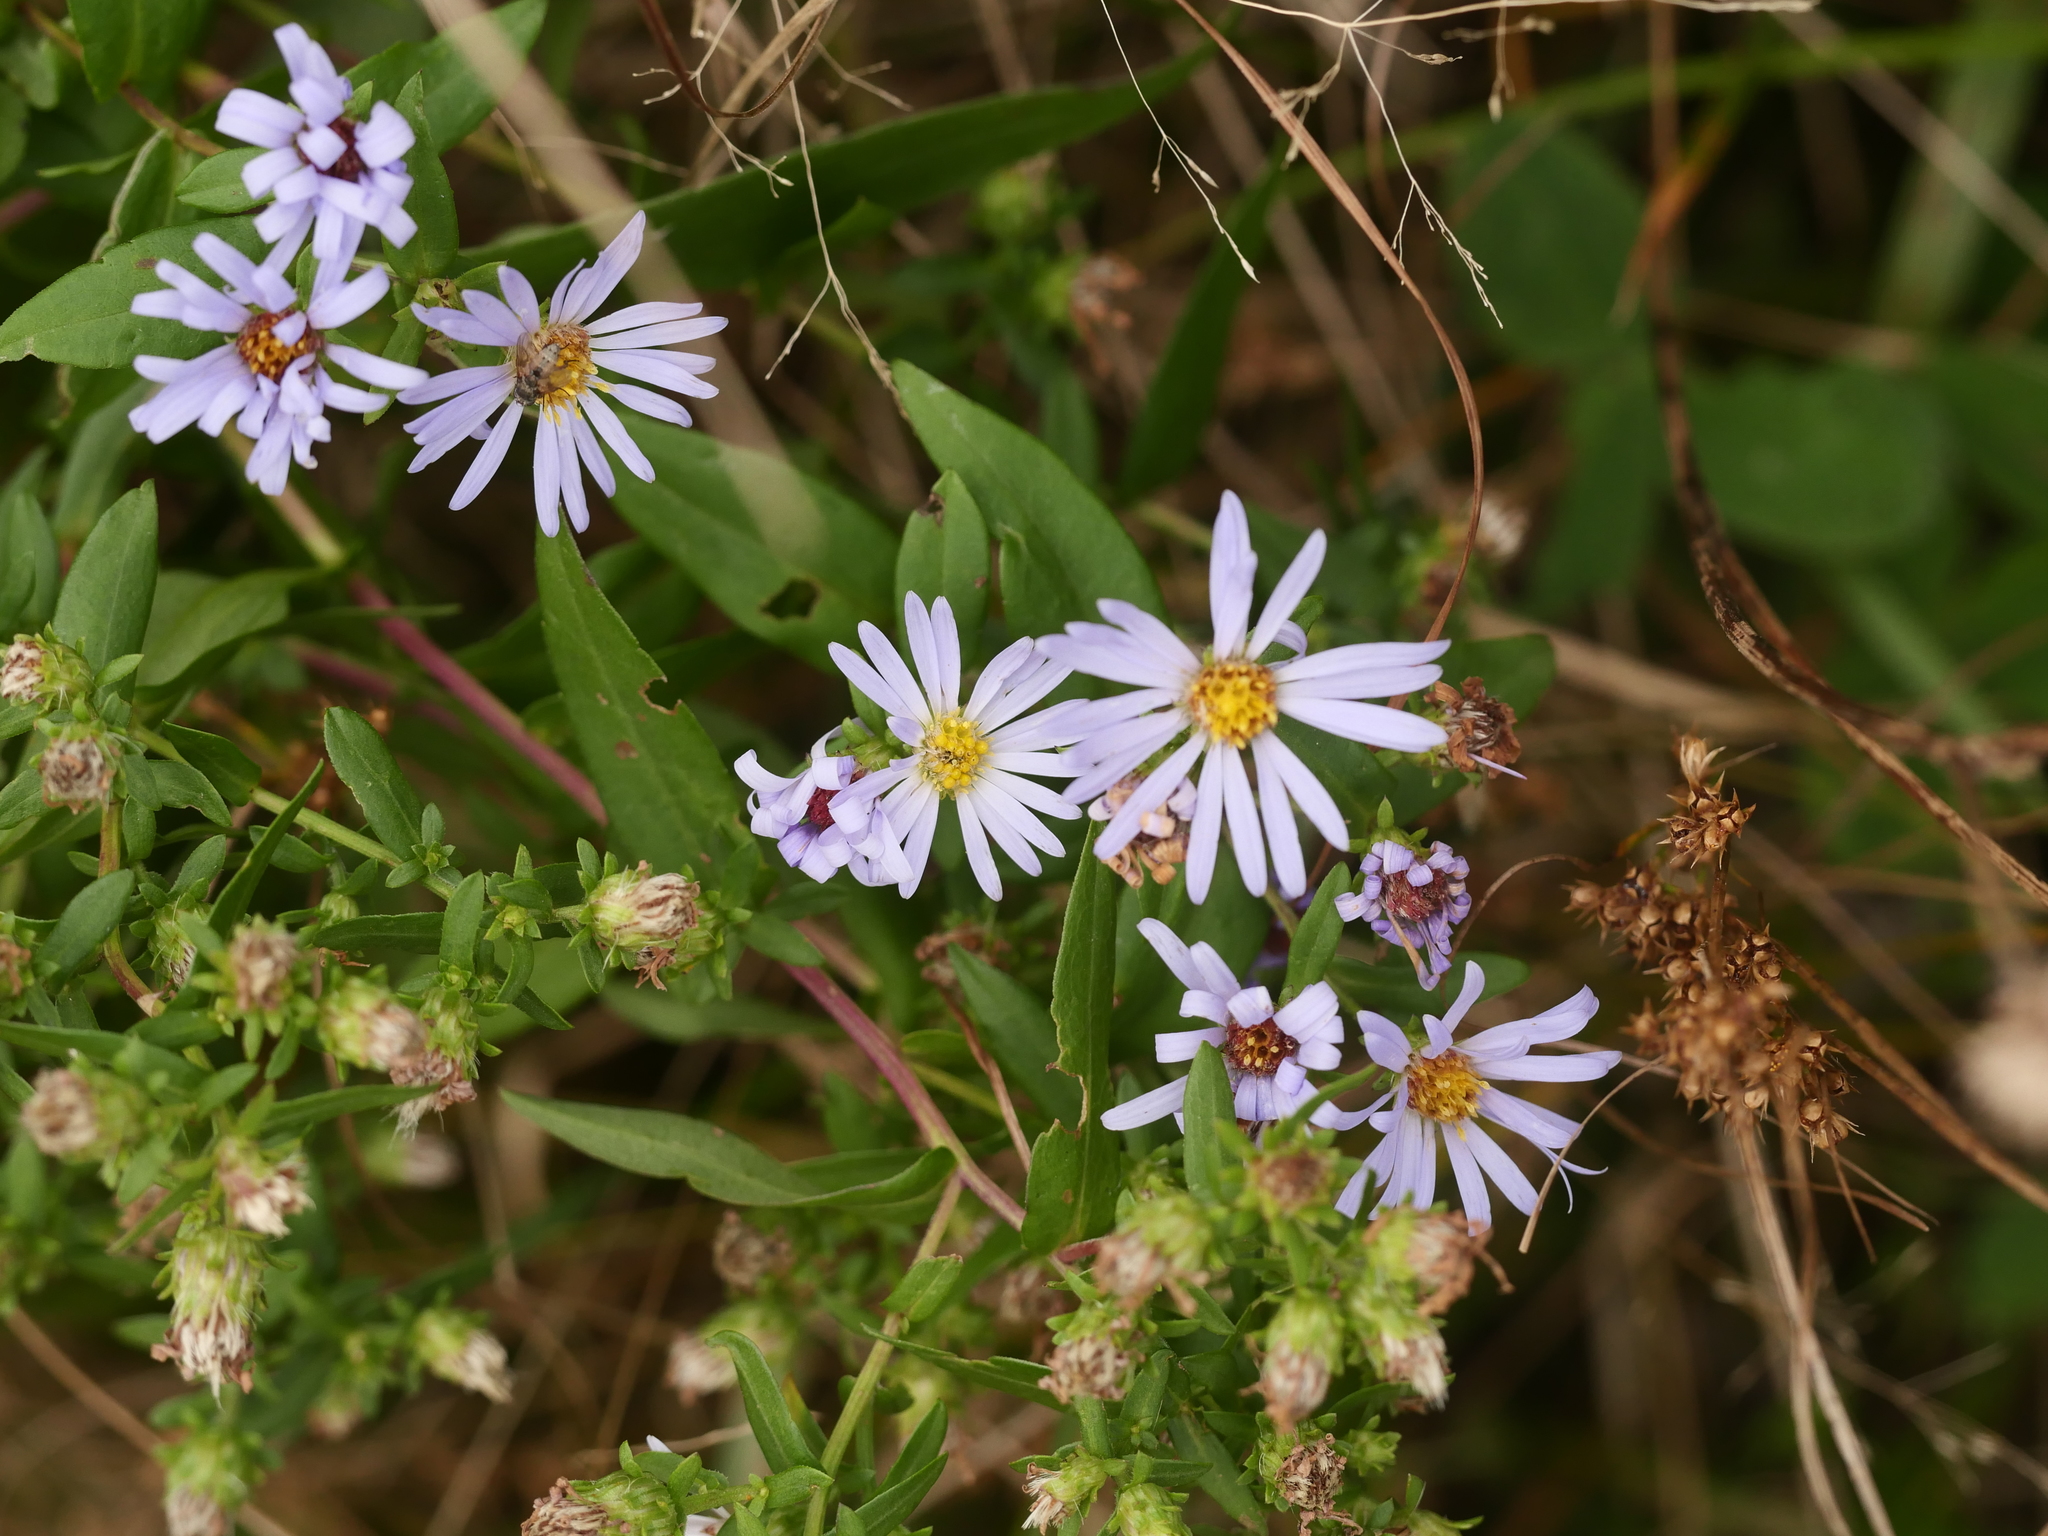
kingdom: Plantae
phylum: Tracheophyta
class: Magnoliopsida
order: Asterales
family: Asteraceae
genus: Symphyotrichum
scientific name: Symphyotrichum novi-belgii
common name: Michaelmas daisy
